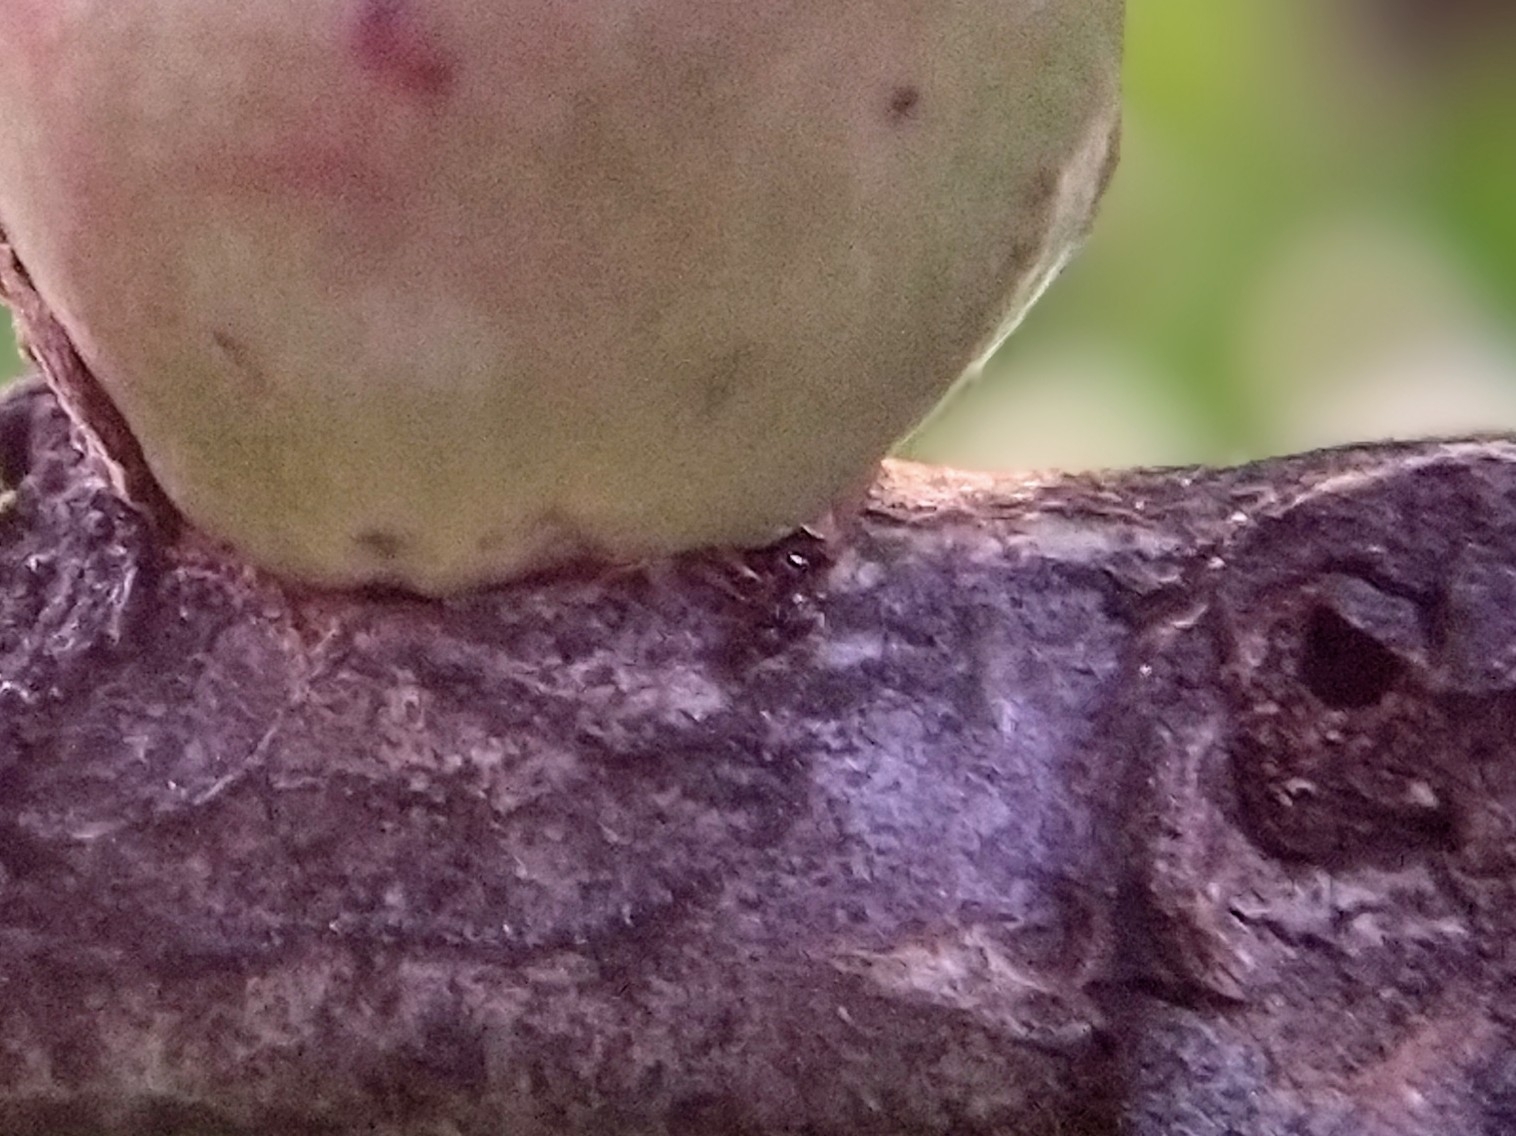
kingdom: Animalia
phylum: Arthropoda
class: Insecta
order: Hymenoptera
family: Cynipidae
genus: Andricus
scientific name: Andricus quercuscalifornicus
